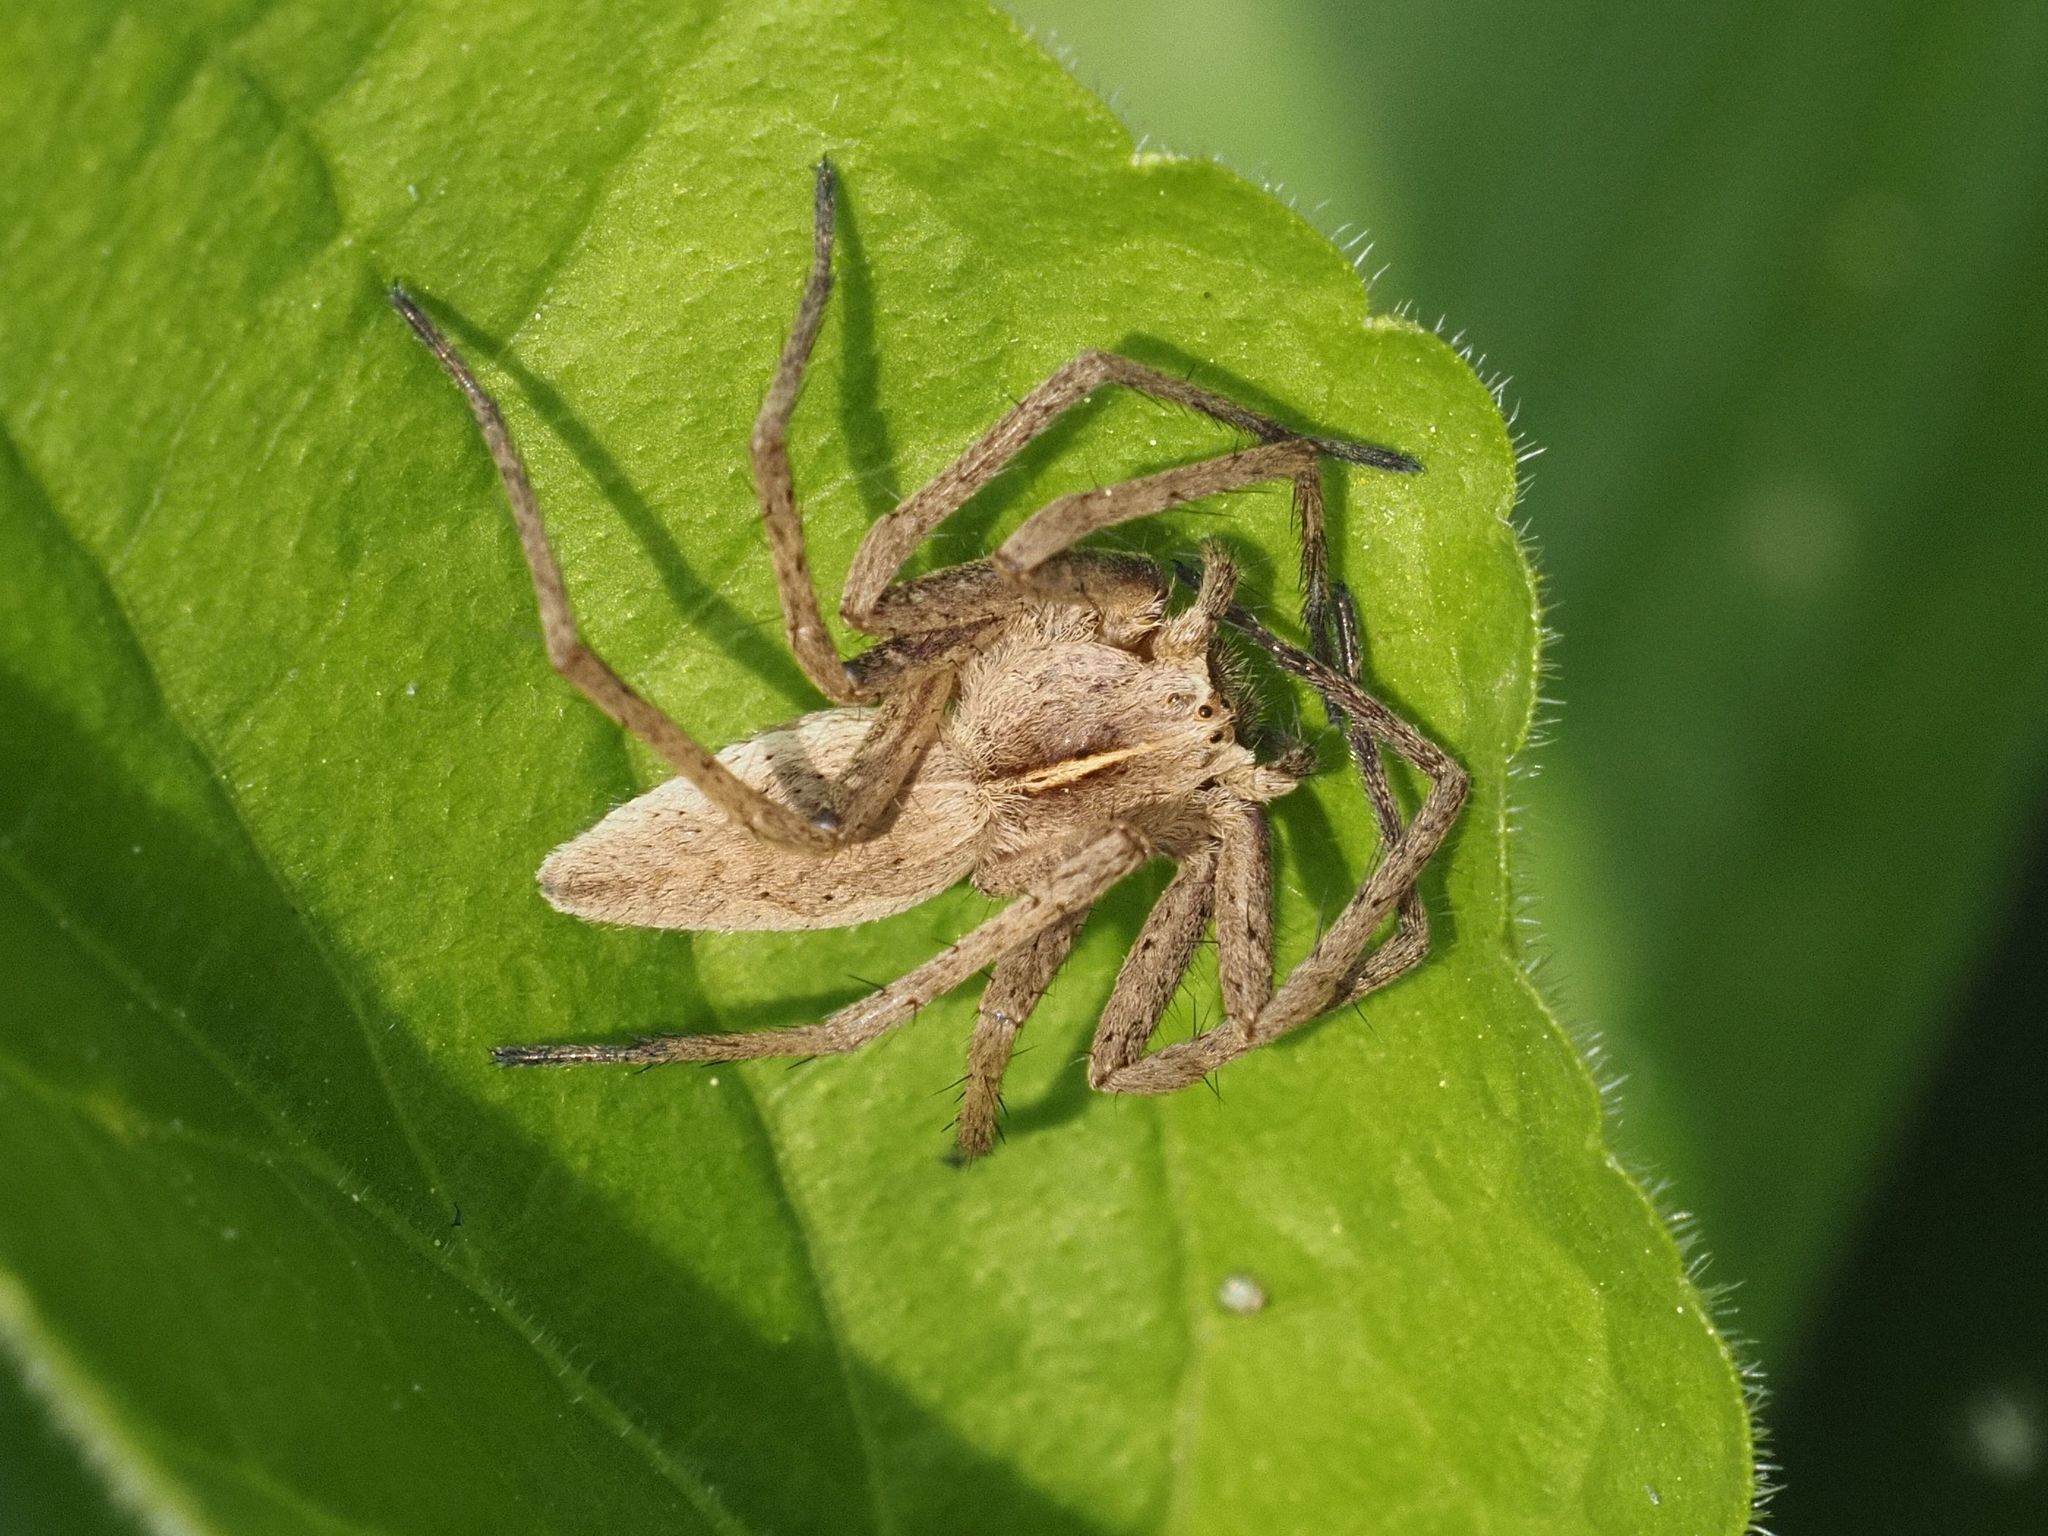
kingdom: Animalia
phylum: Arthropoda
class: Arachnida
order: Araneae
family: Pisauridae
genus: Pisaura
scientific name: Pisaura mirabilis
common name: Tent spider
